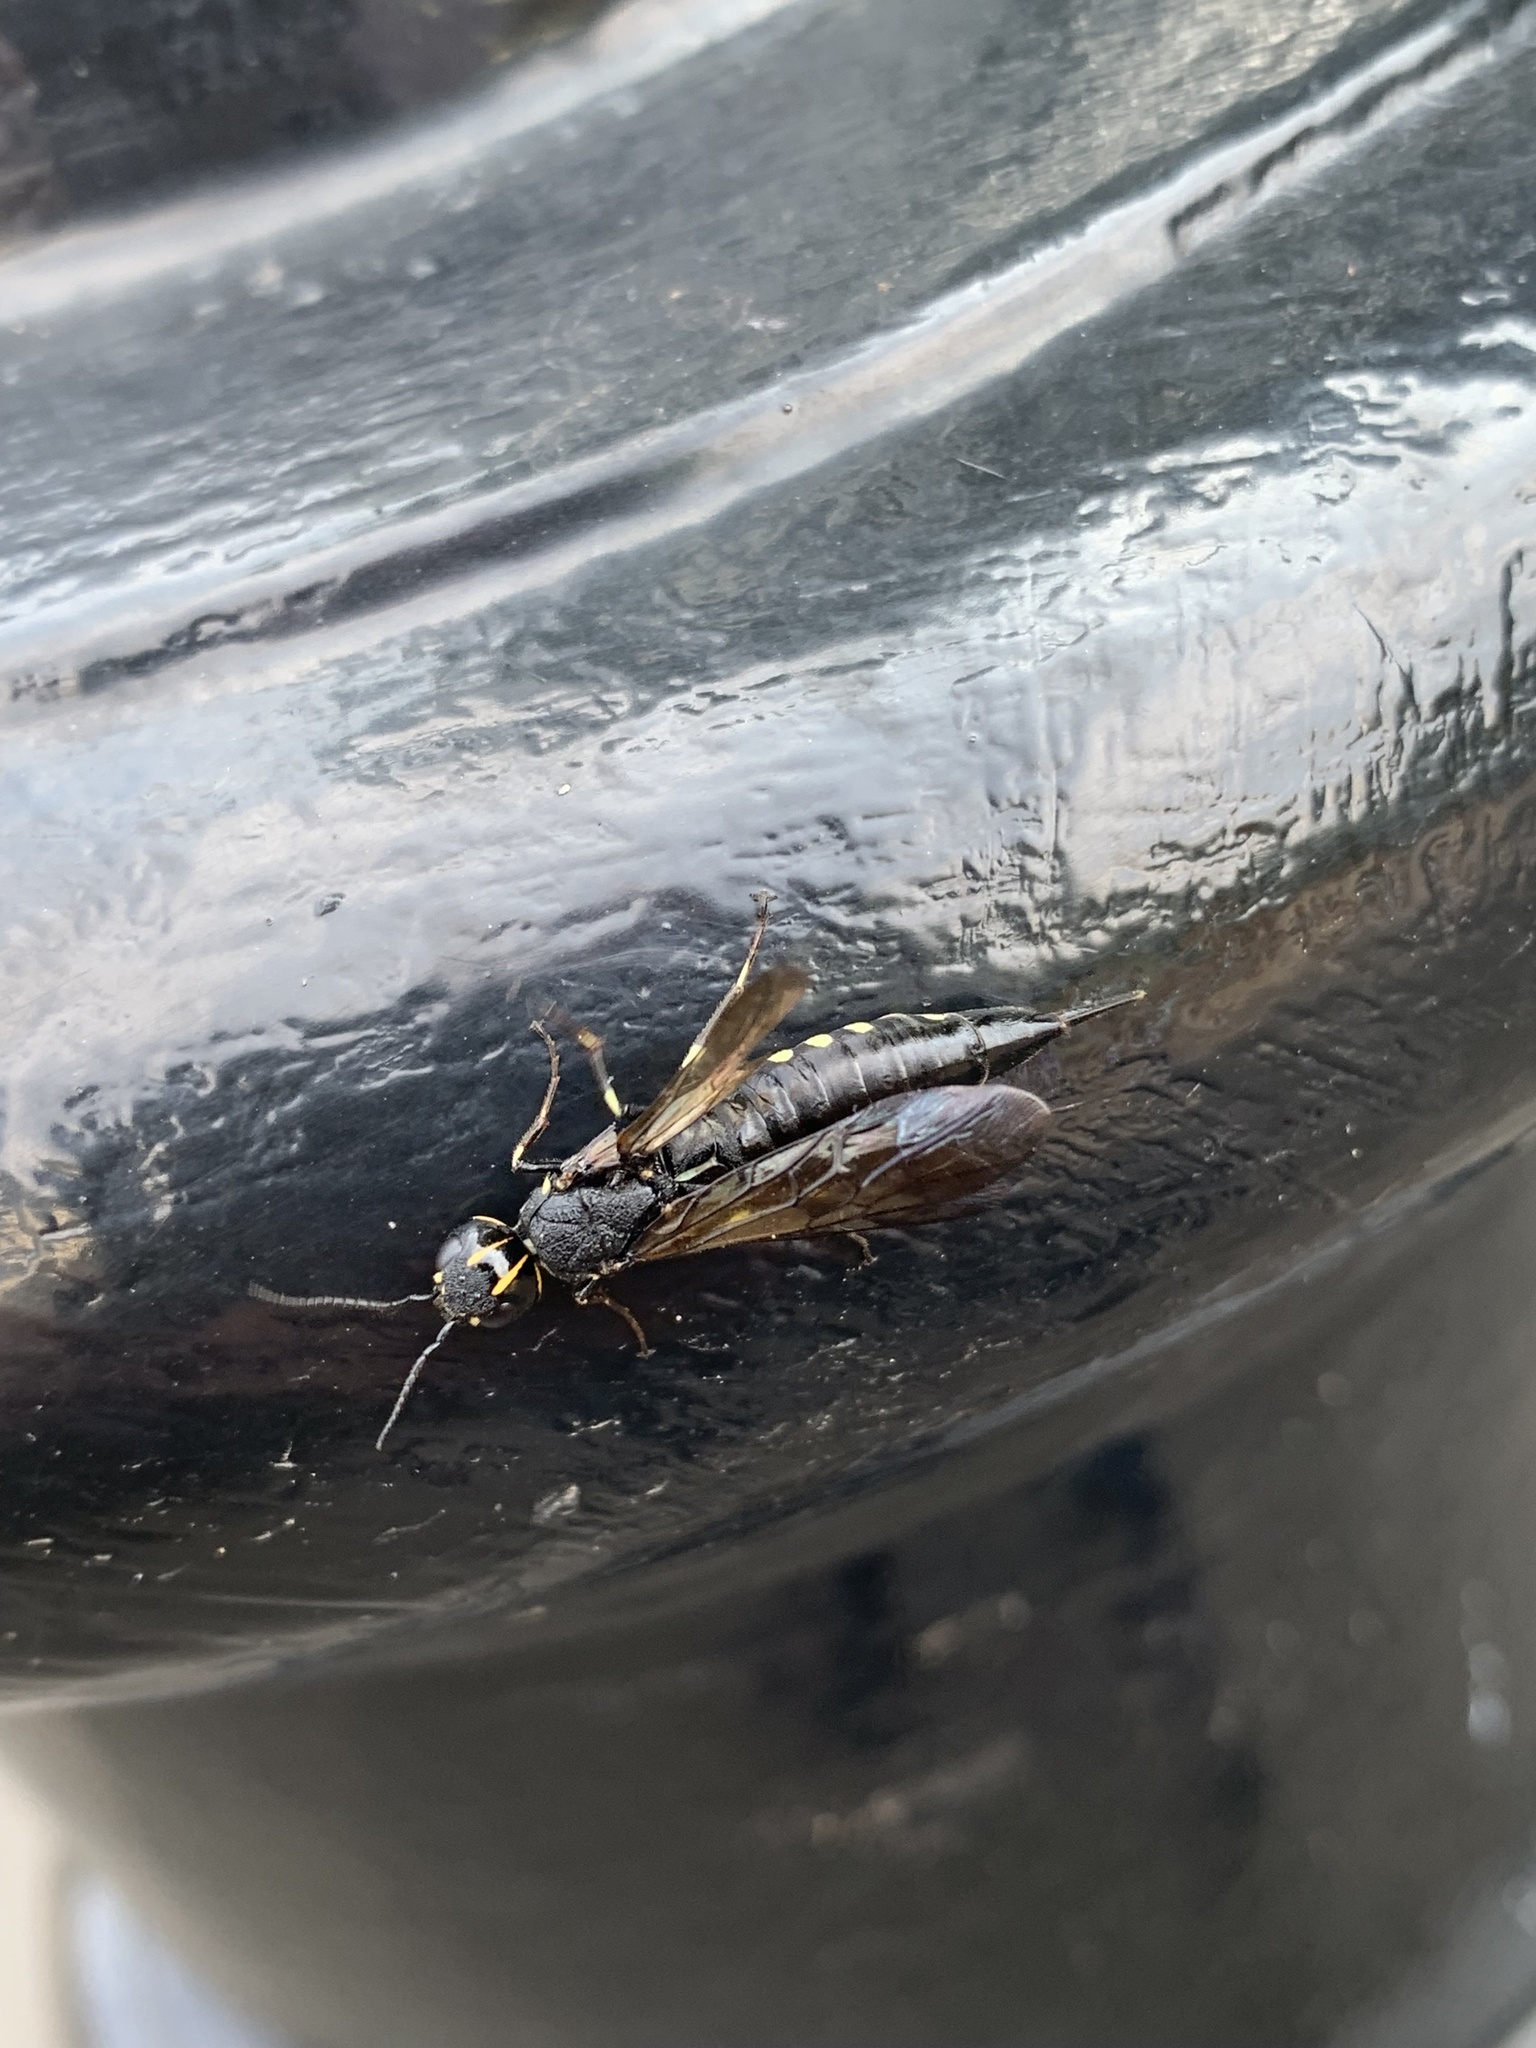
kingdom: Animalia
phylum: Arthropoda
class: Insecta
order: Hymenoptera
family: Xiphydriidae
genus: Xiphydria
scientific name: Xiphydria longicollis
